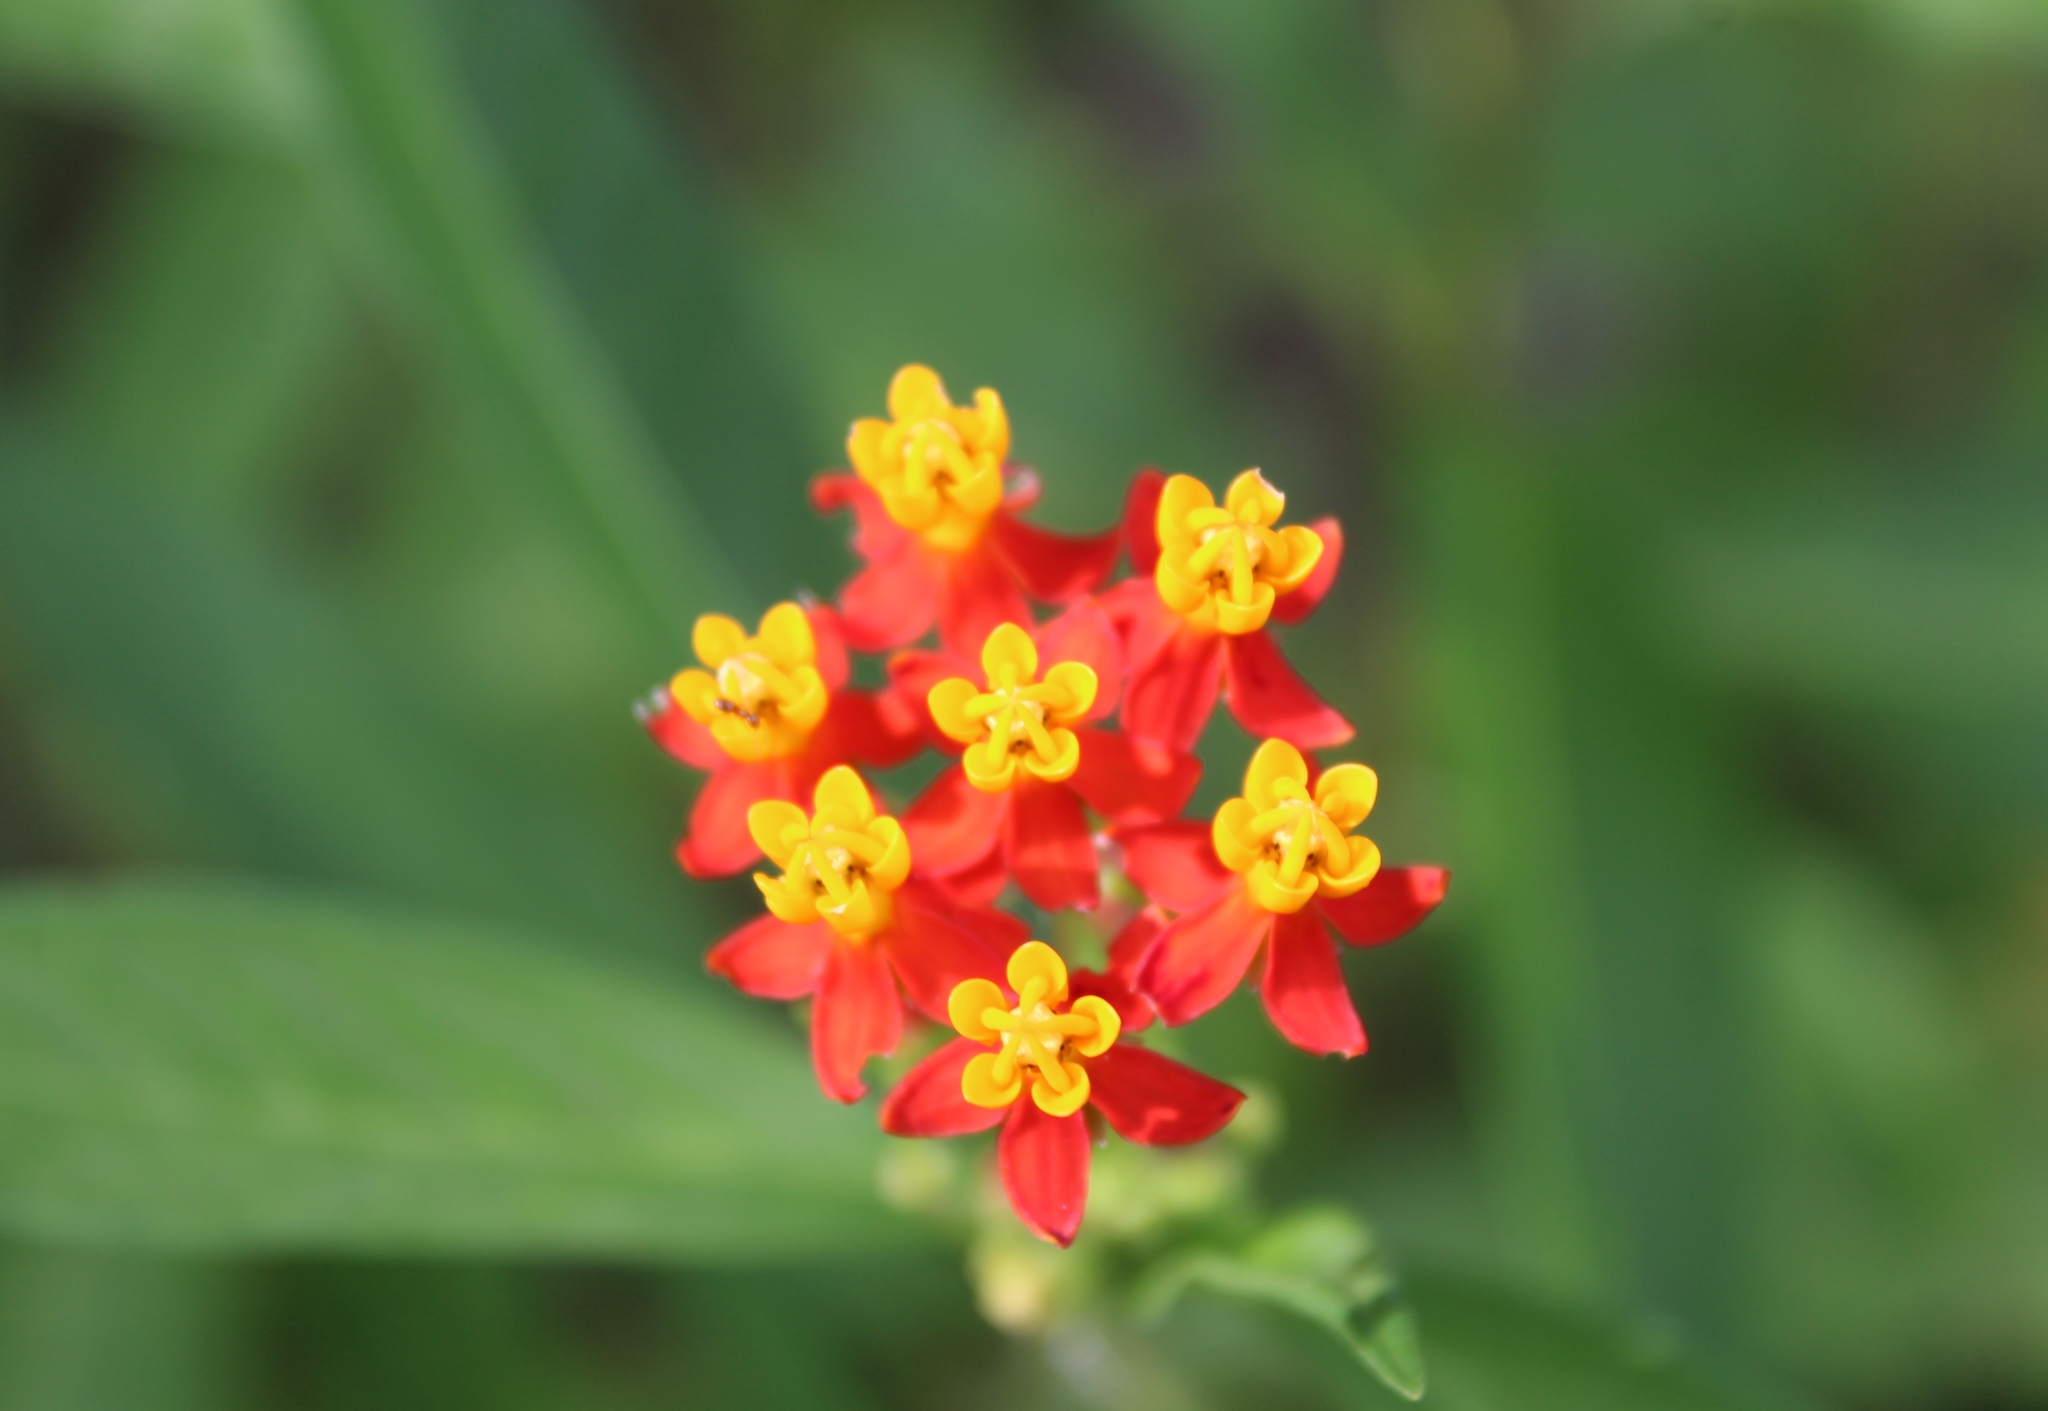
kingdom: Plantae
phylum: Tracheophyta
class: Magnoliopsida
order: Gentianales
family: Apocynaceae
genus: Asclepias
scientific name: Asclepias curassavica
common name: Bloodflower
